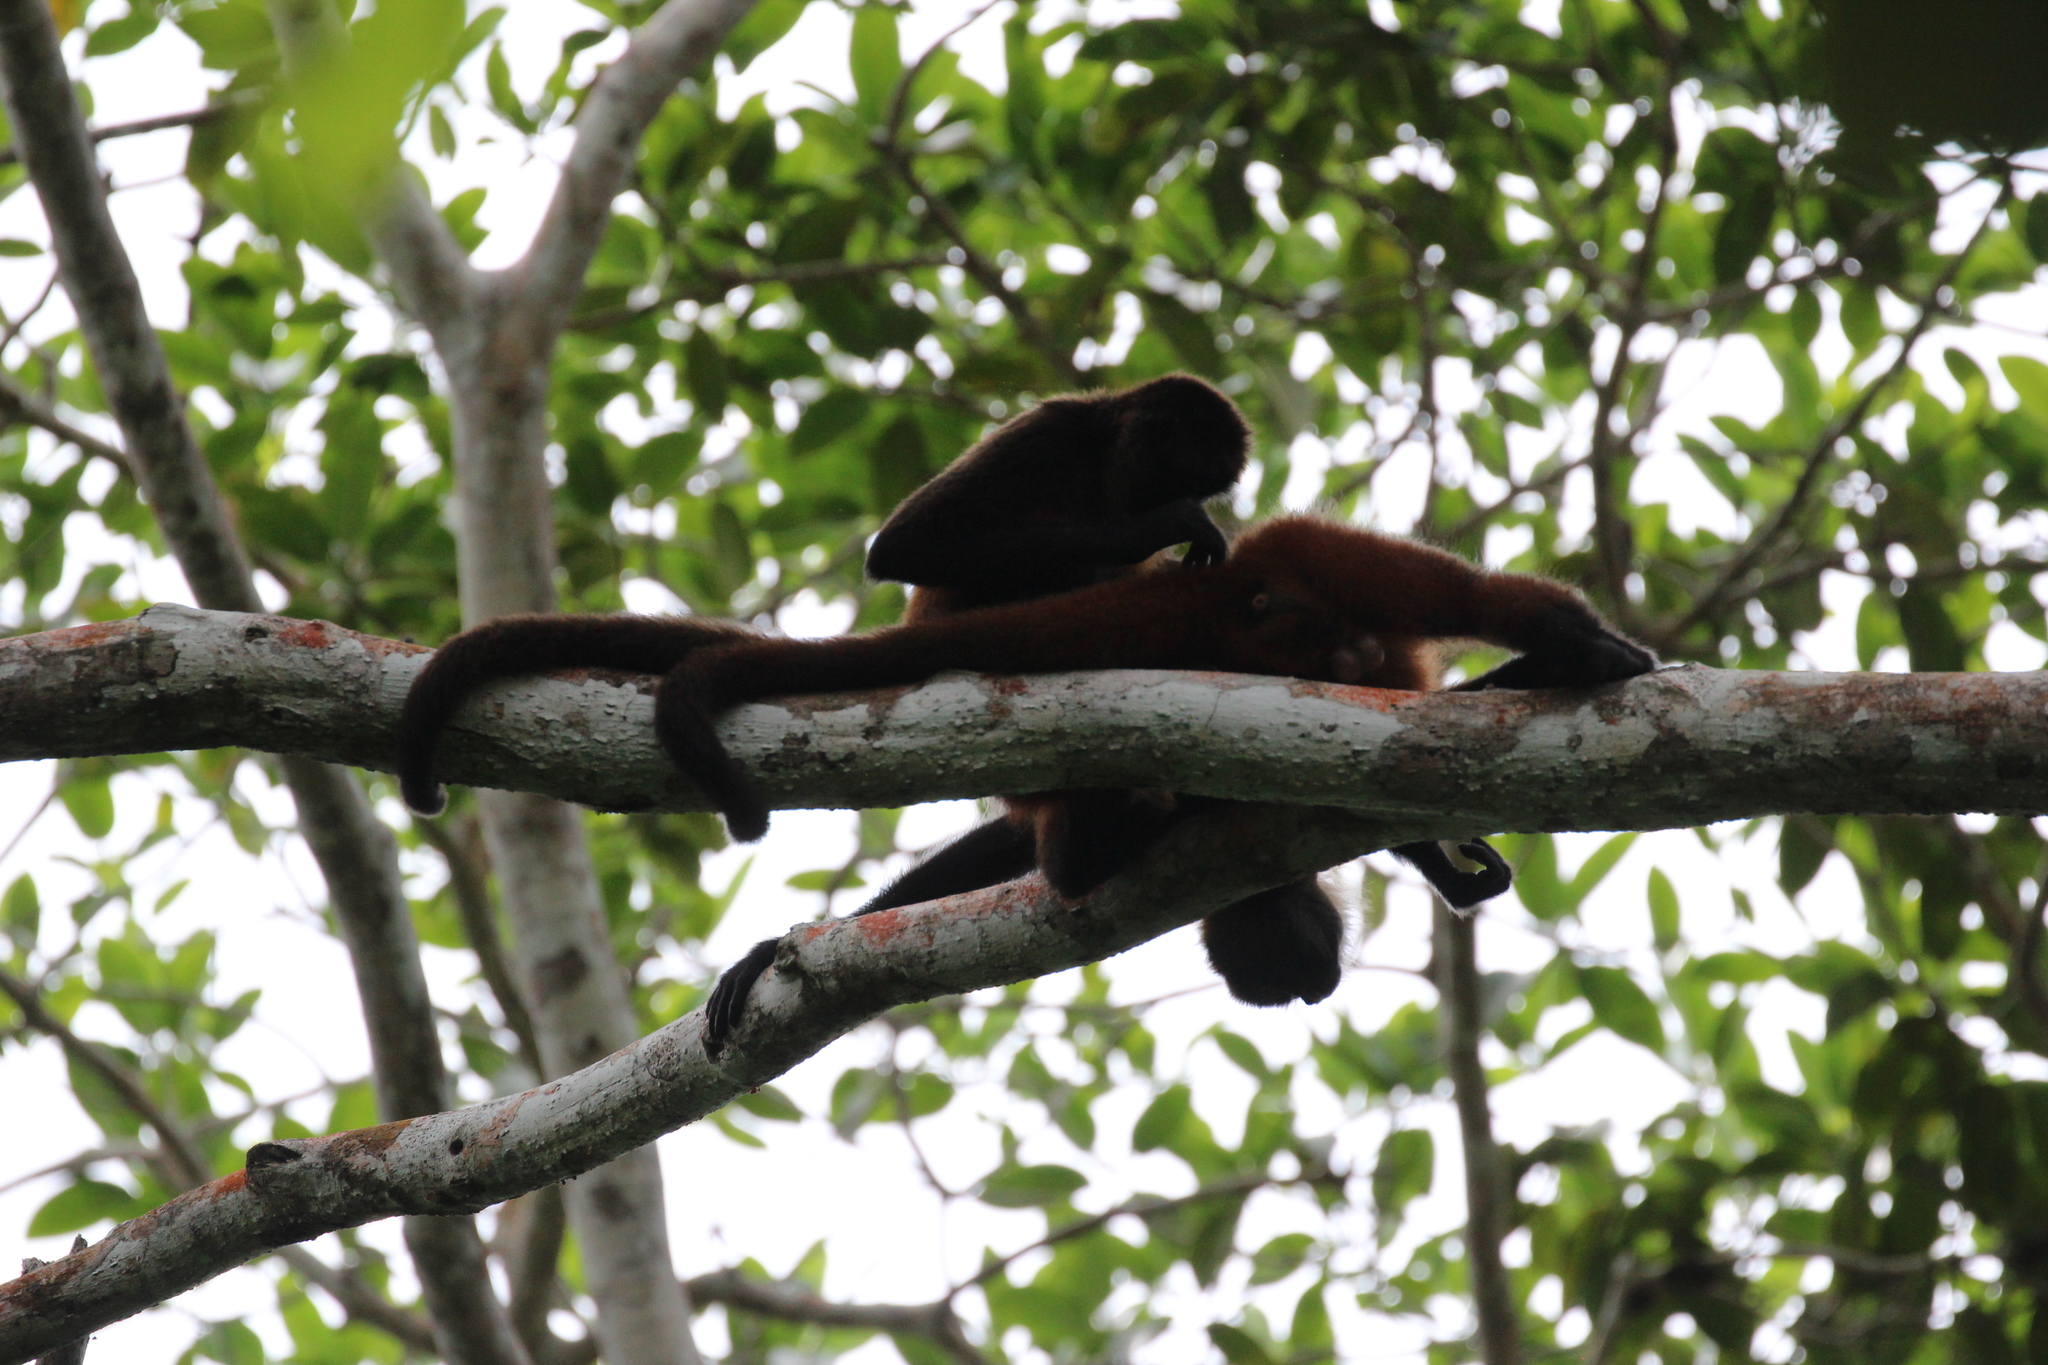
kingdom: Animalia
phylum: Chordata
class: Mammalia
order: Primates
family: Atelidae
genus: Ateles
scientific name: Ateles geoffroyi
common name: Black-handed spider monkey
